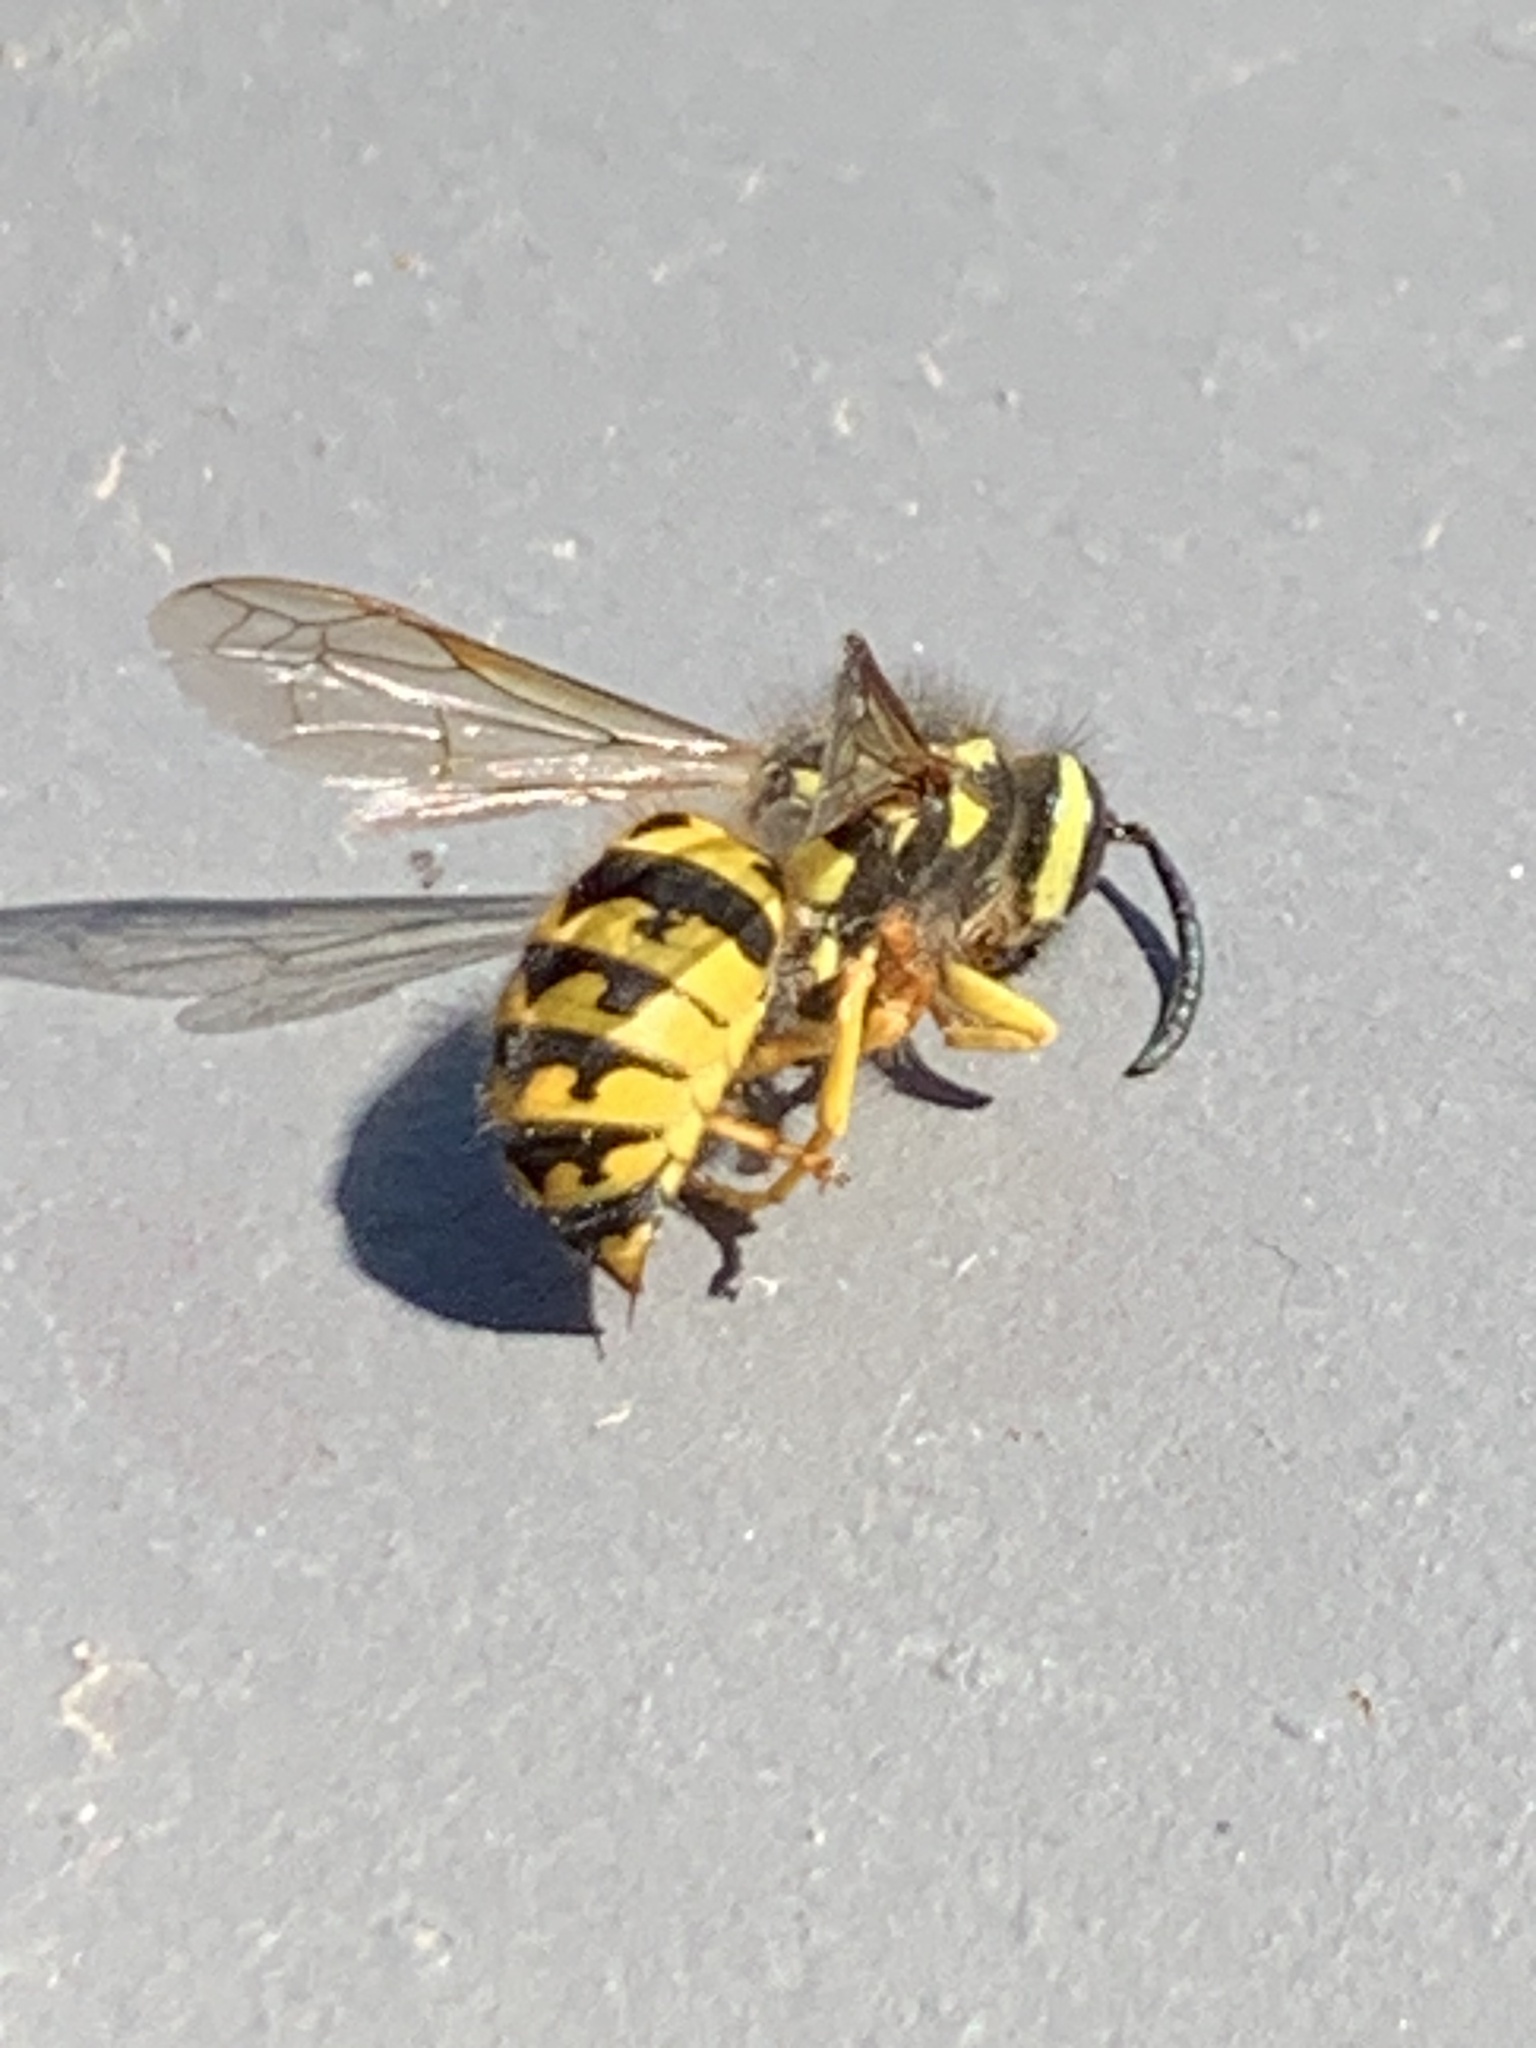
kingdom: Animalia
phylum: Arthropoda
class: Insecta
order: Hymenoptera
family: Vespidae
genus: Vespula
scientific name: Vespula pensylvanica
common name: Western yellowjacket
